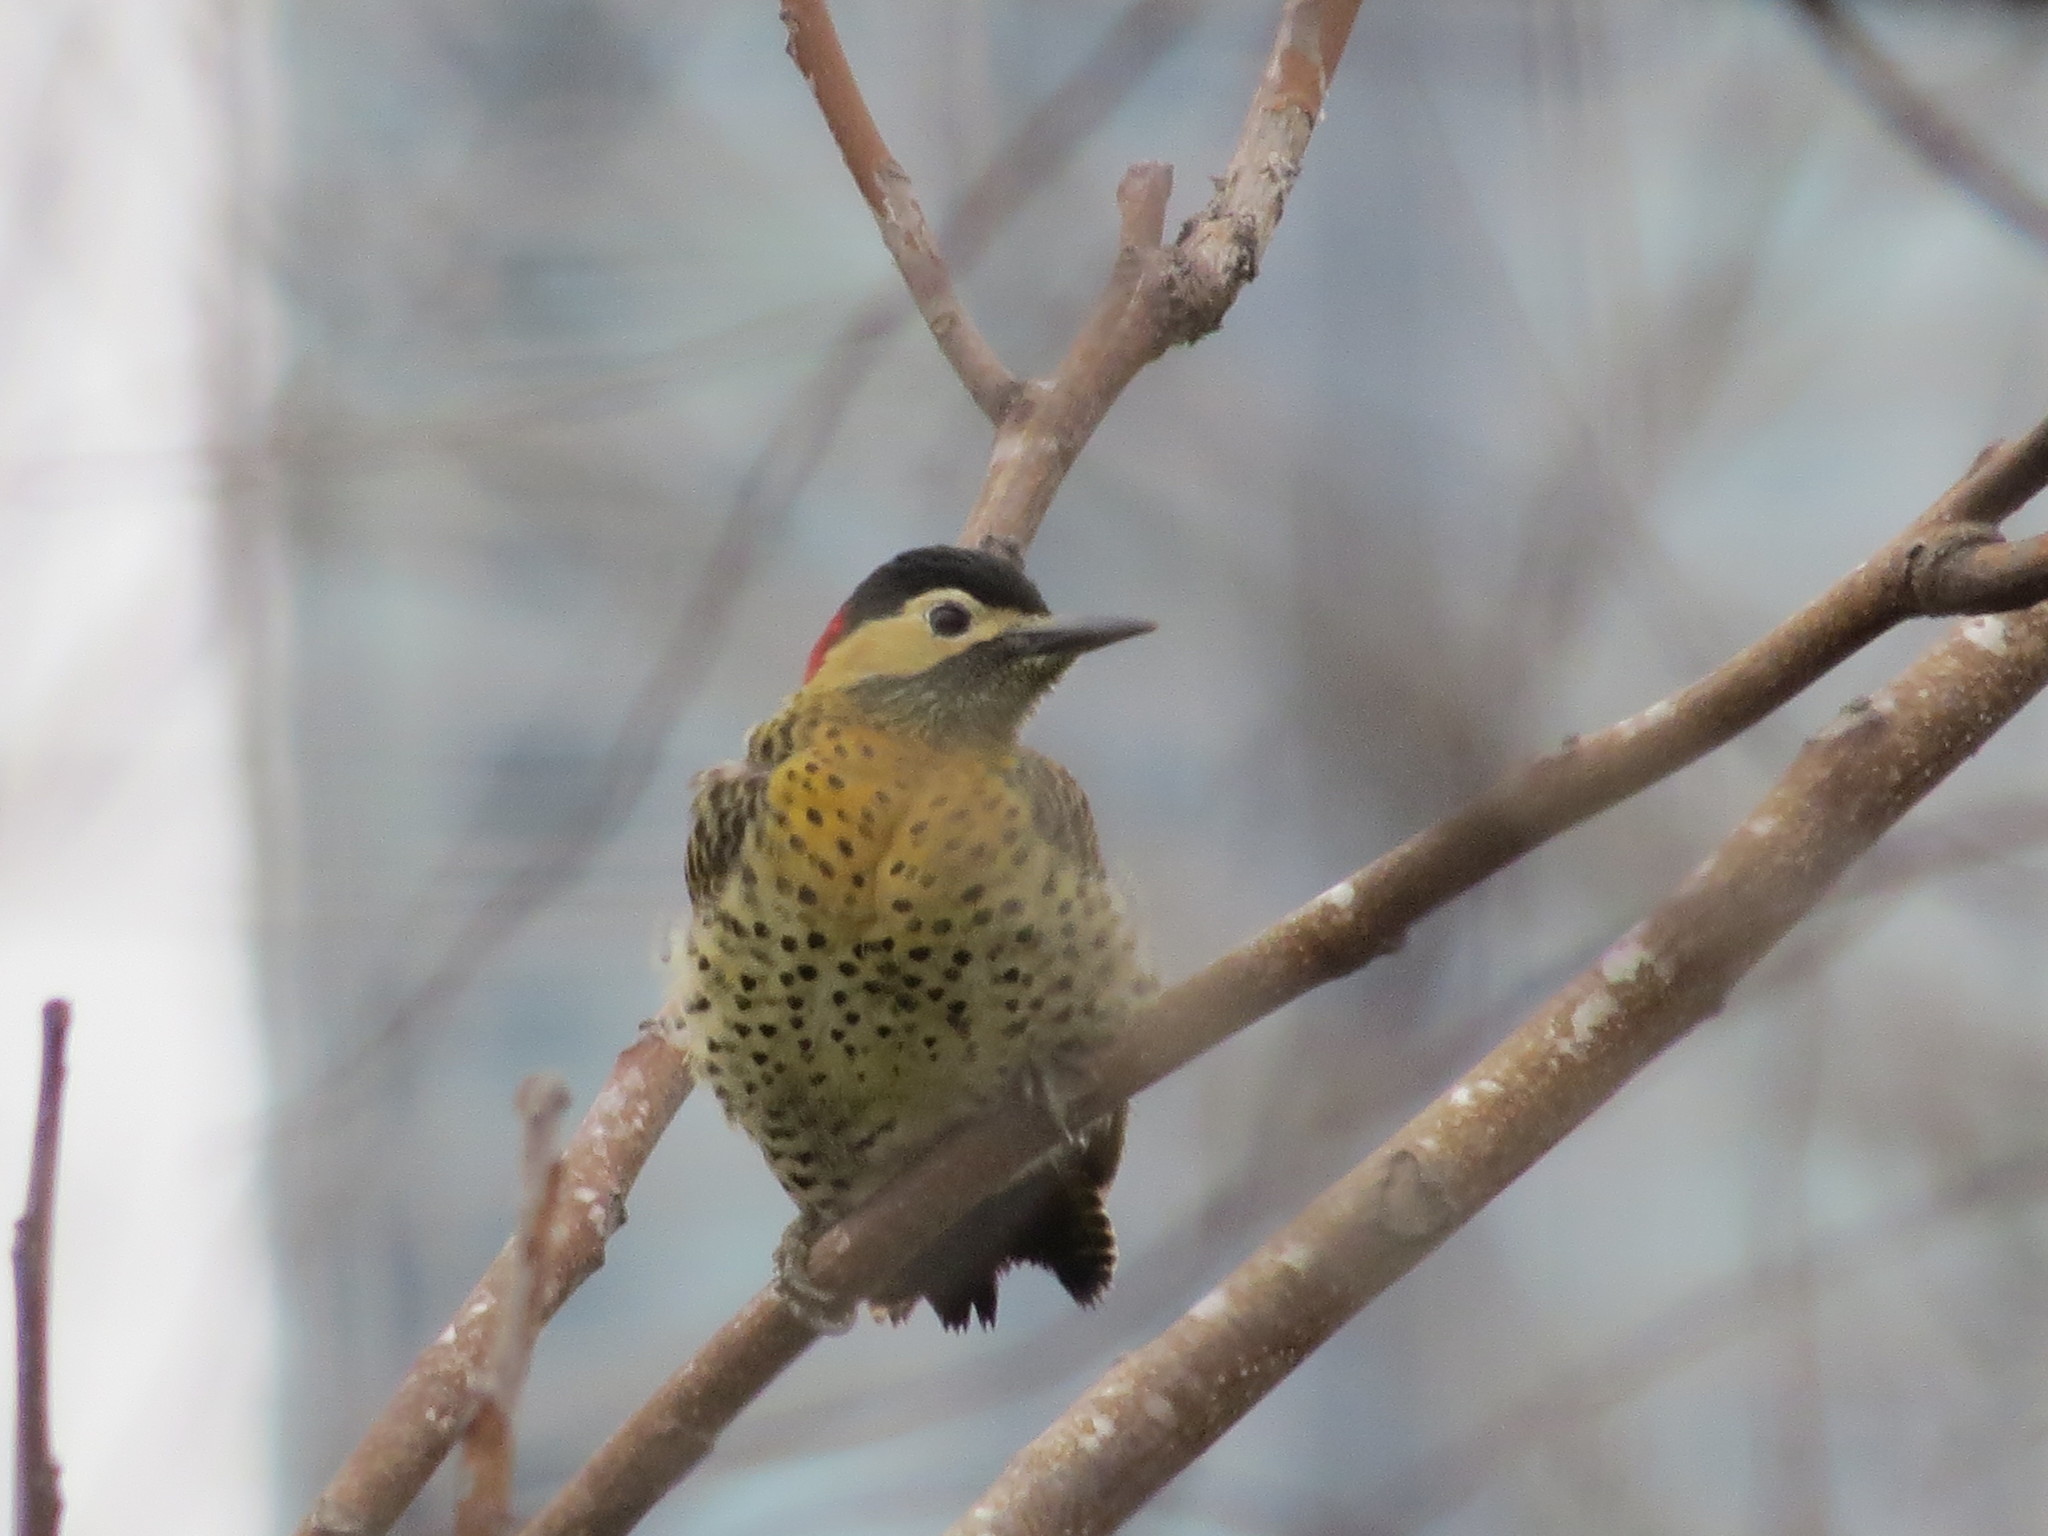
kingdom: Animalia
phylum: Chordata
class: Aves
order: Piciformes
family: Picidae
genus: Colaptes
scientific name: Colaptes melanochloros
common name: Green-barred woodpecker
